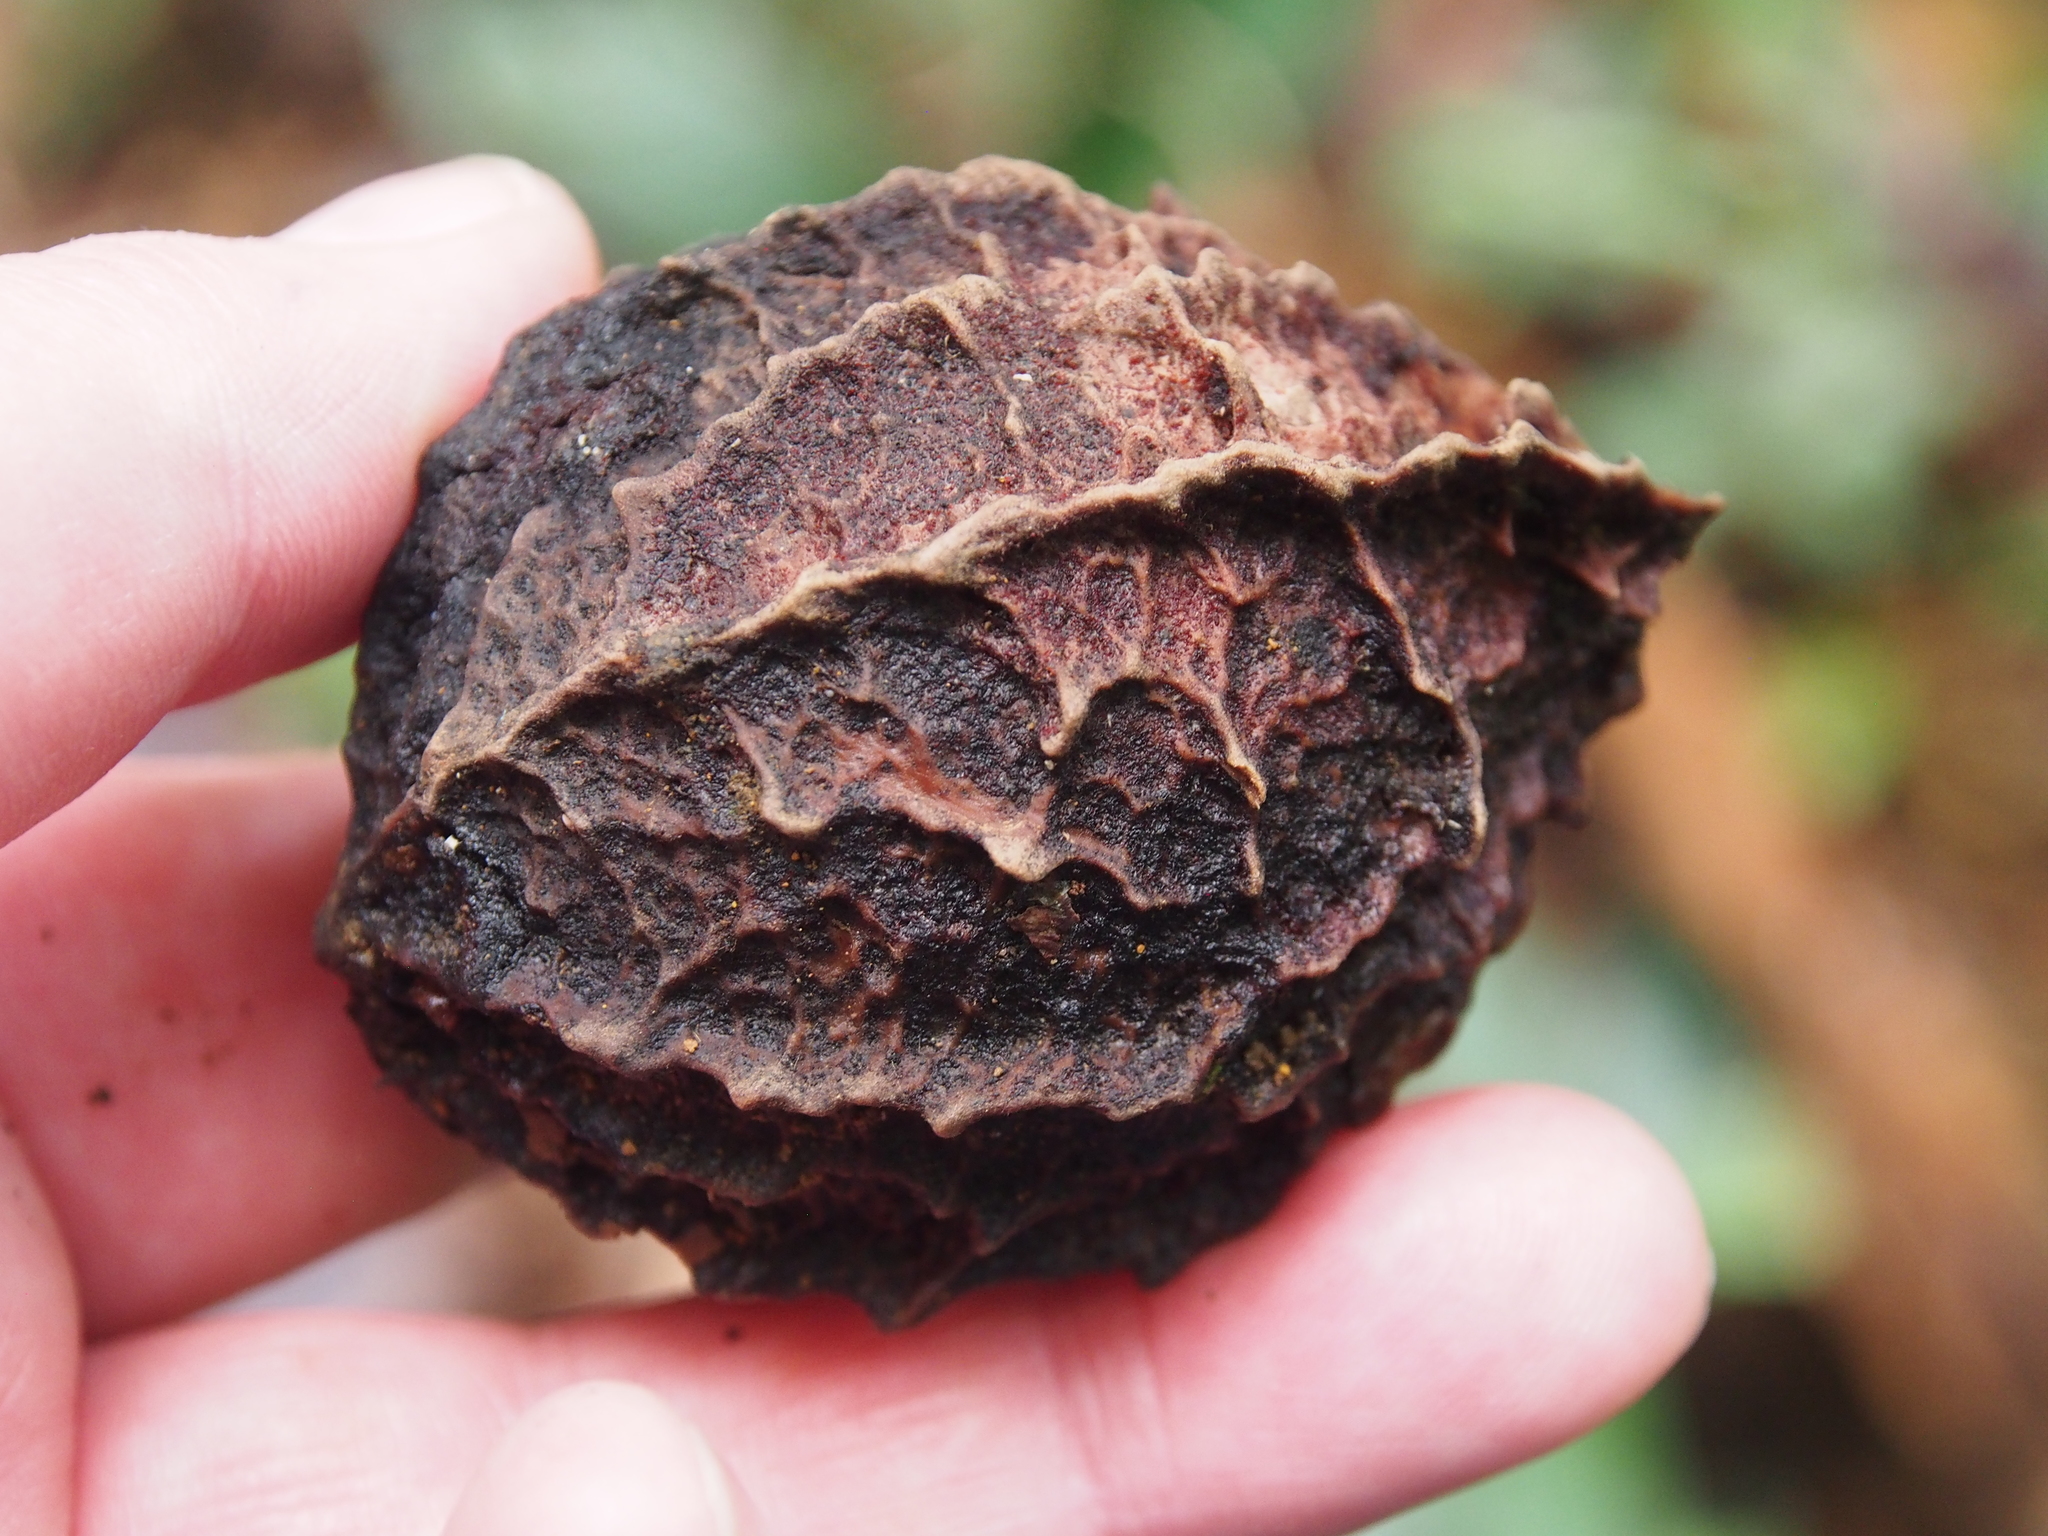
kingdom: Plantae
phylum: Tracheophyta
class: Magnoliopsida
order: Metteniusales
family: Metteniusaceae
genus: Calatola
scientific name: Calatola costaricensis
